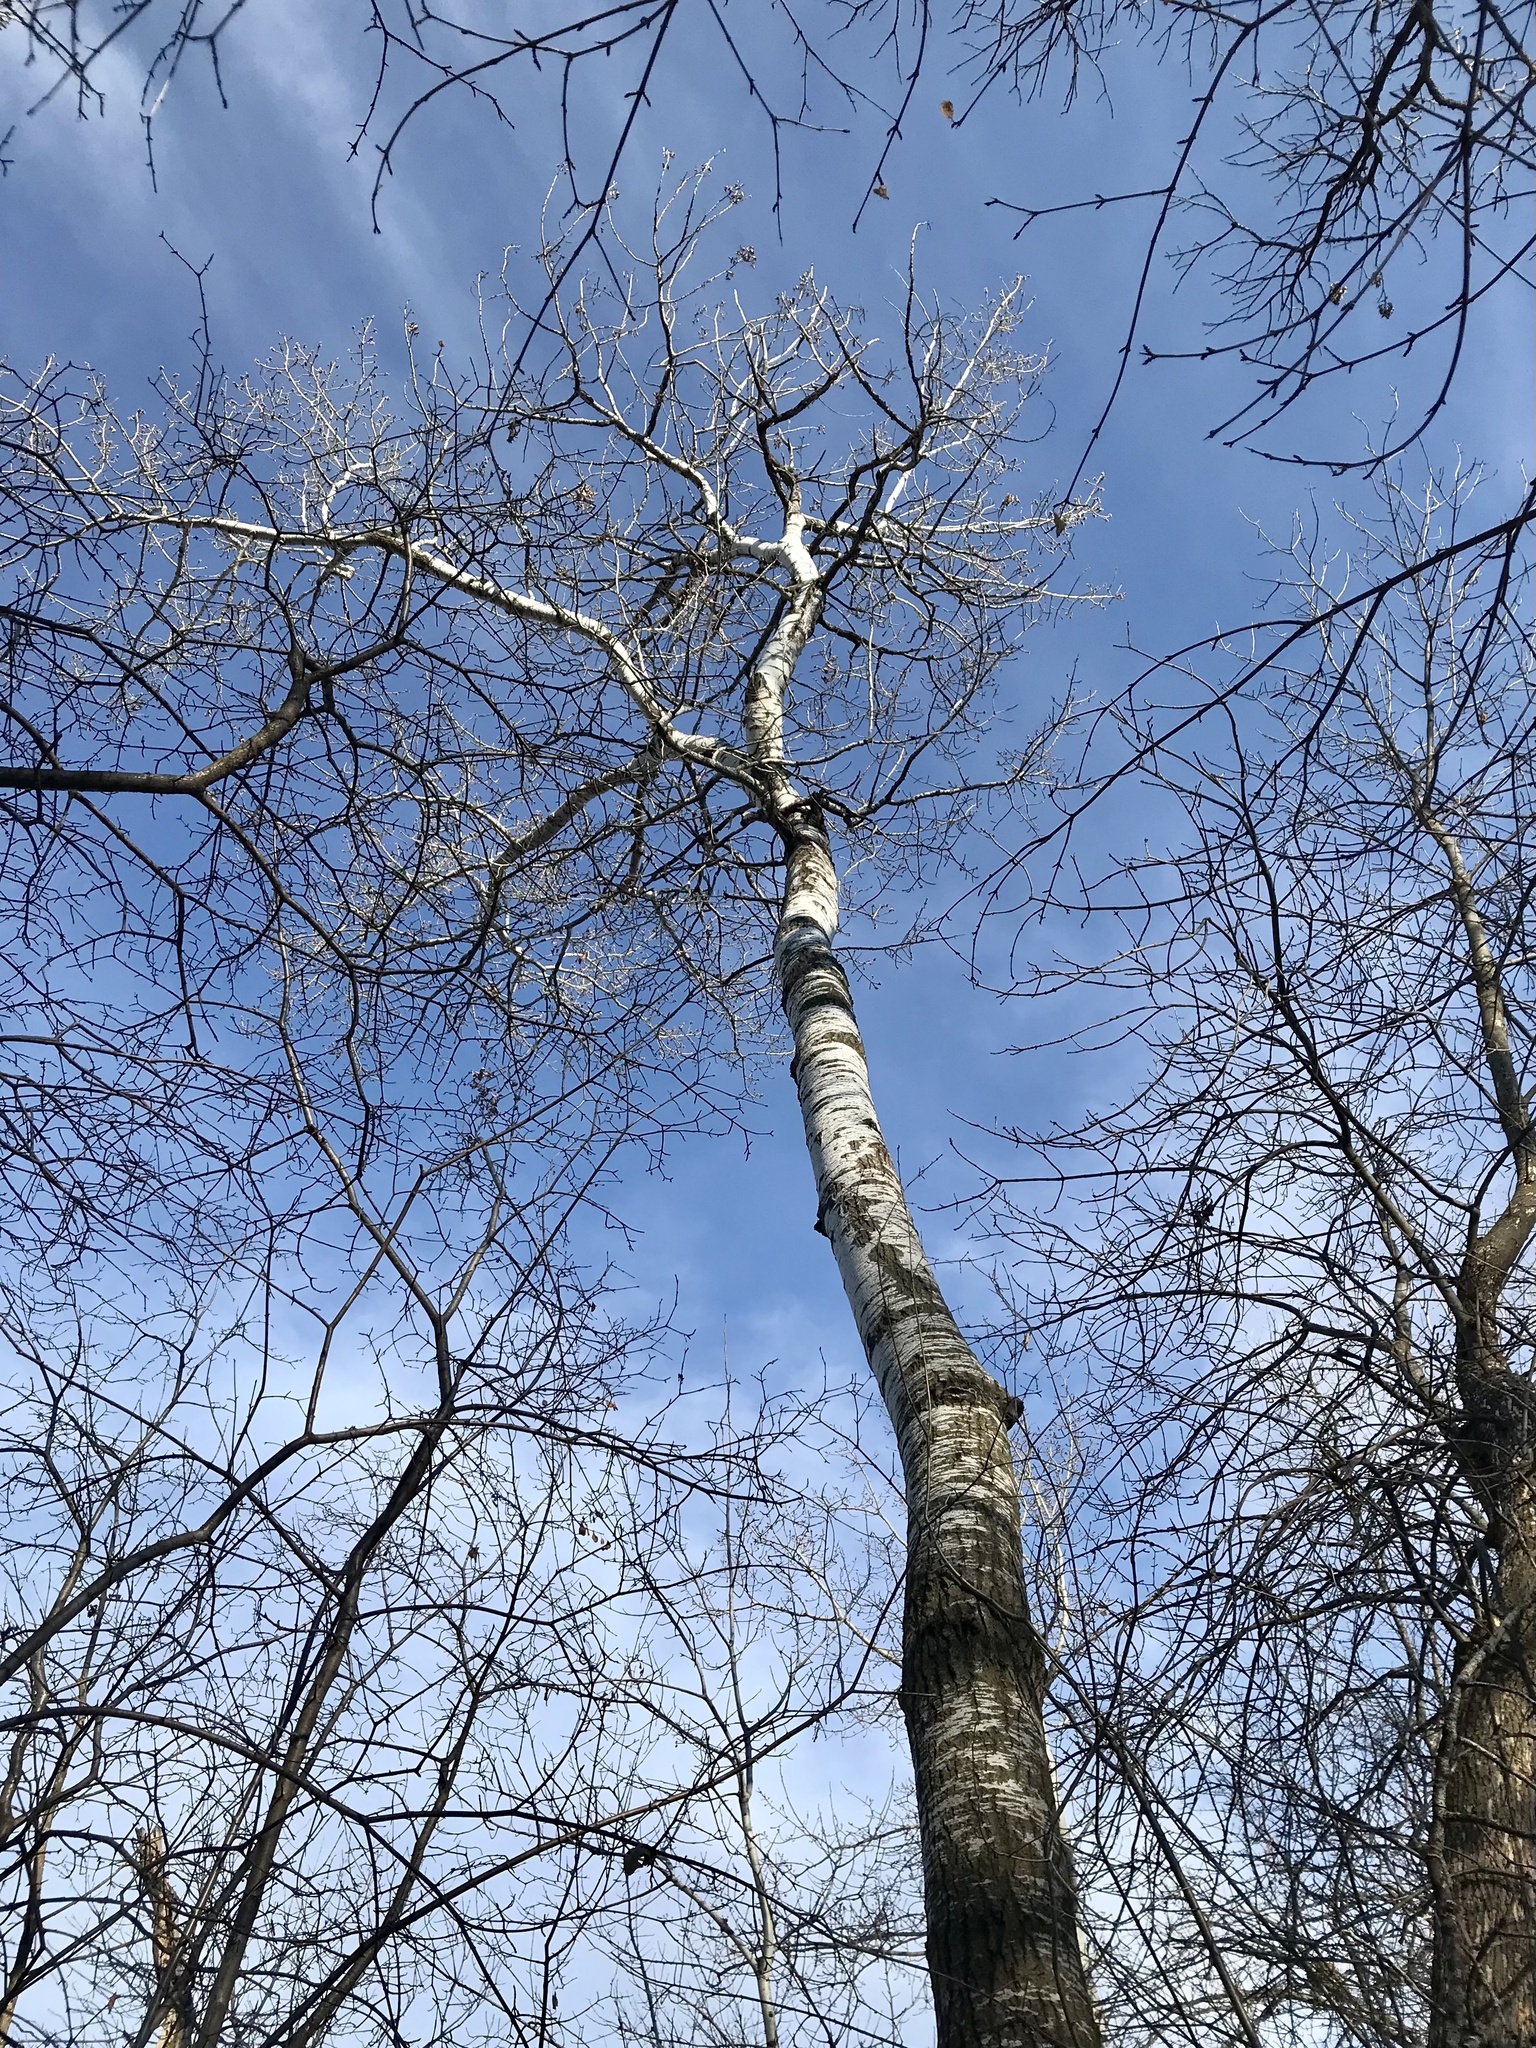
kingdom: Plantae
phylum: Tracheophyta
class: Magnoliopsida
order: Malpighiales
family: Salicaceae
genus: Populus
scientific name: Populus tremuloides
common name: Quaking aspen
